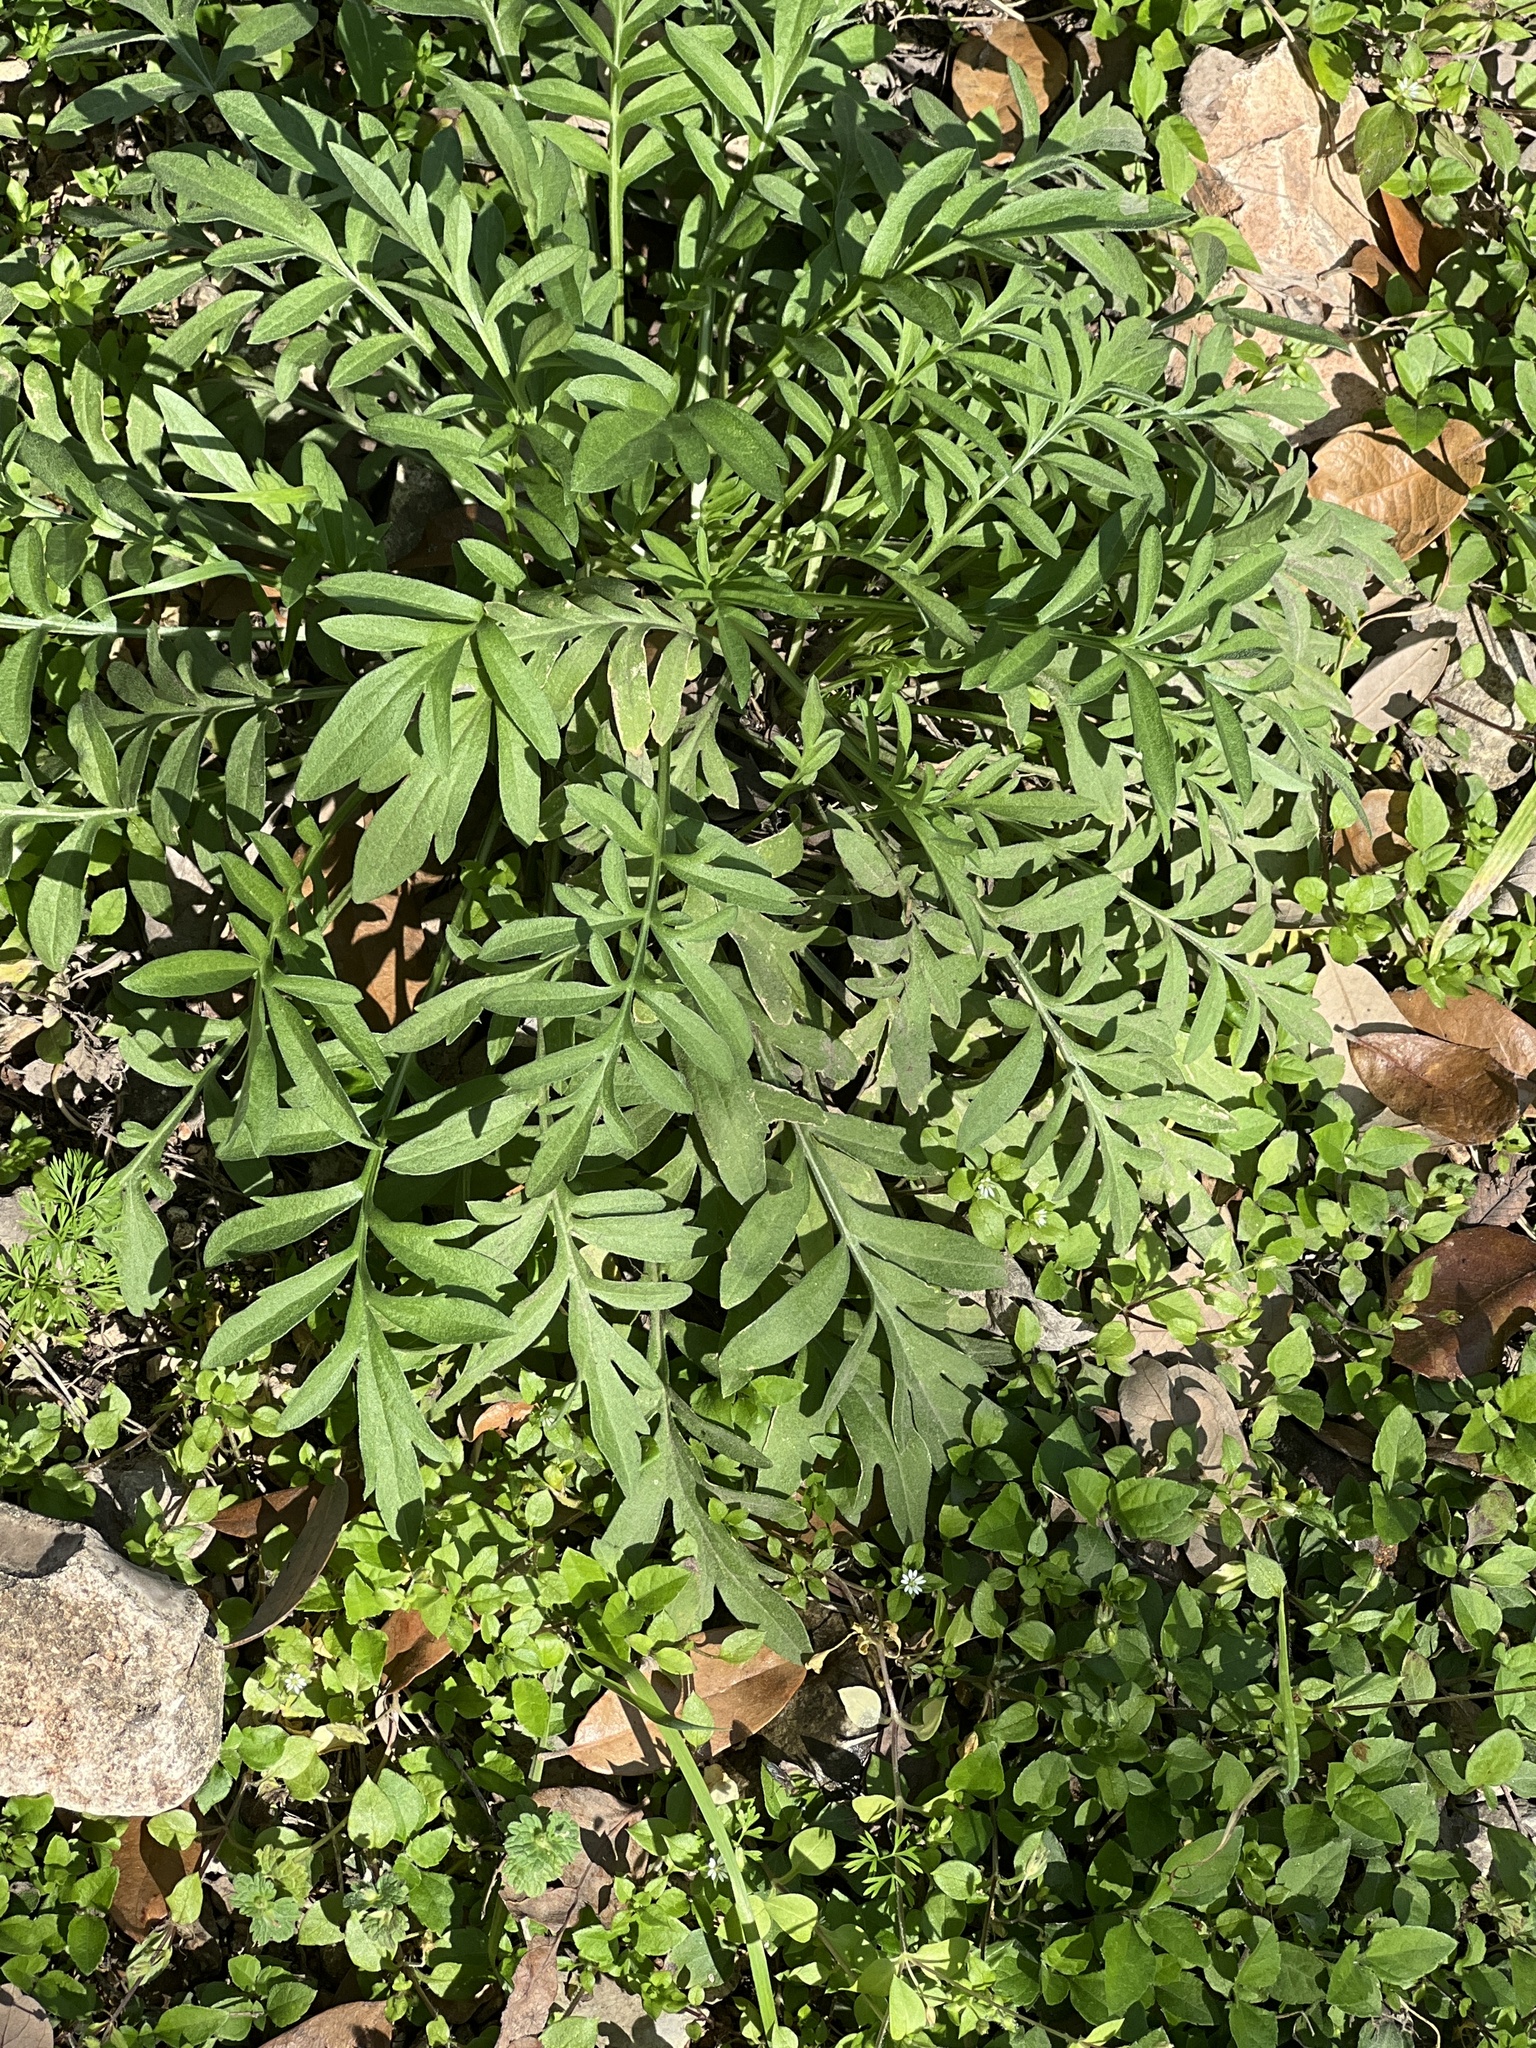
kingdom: Plantae
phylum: Tracheophyta
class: Magnoliopsida
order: Asterales
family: Asteraceae
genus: Ratibida
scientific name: Ratibida columnifera
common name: Prairie coneflower
